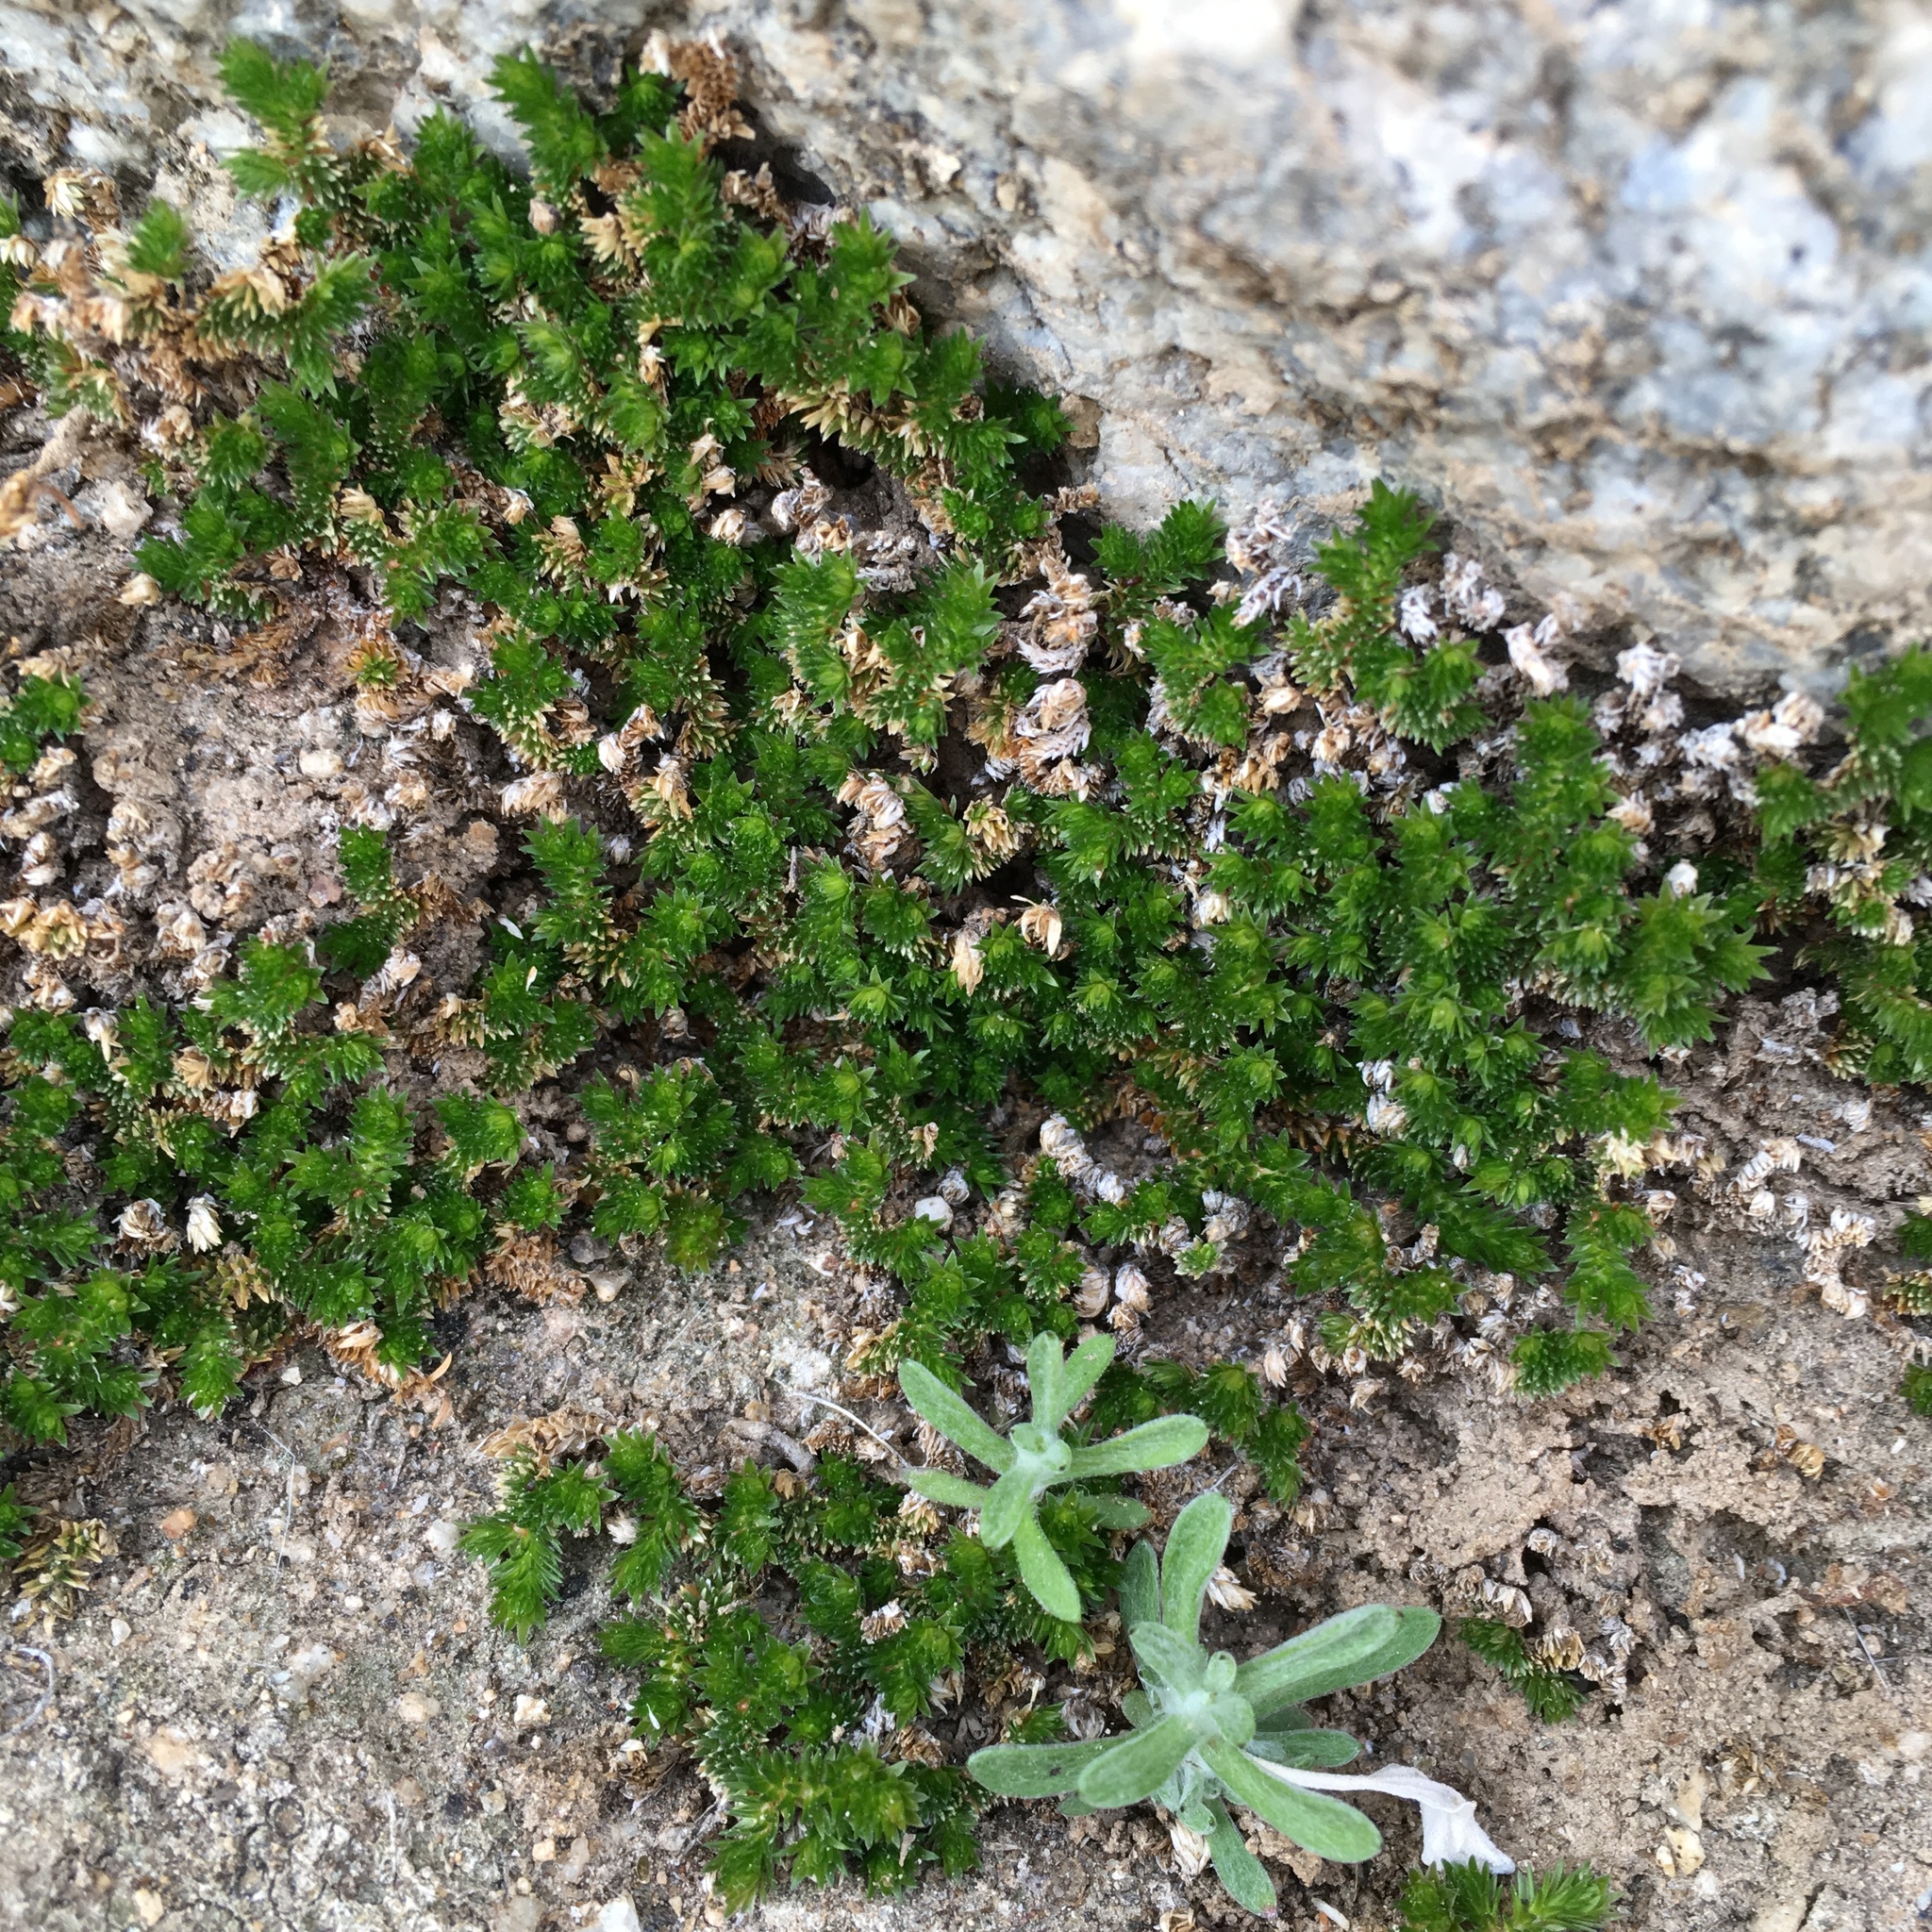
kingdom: Plantae
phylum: Tracheophyta
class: Lycopodiopsida
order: Selaginellales
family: Selaginellaceae
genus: Selaginella
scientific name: Selaginella eremophila
